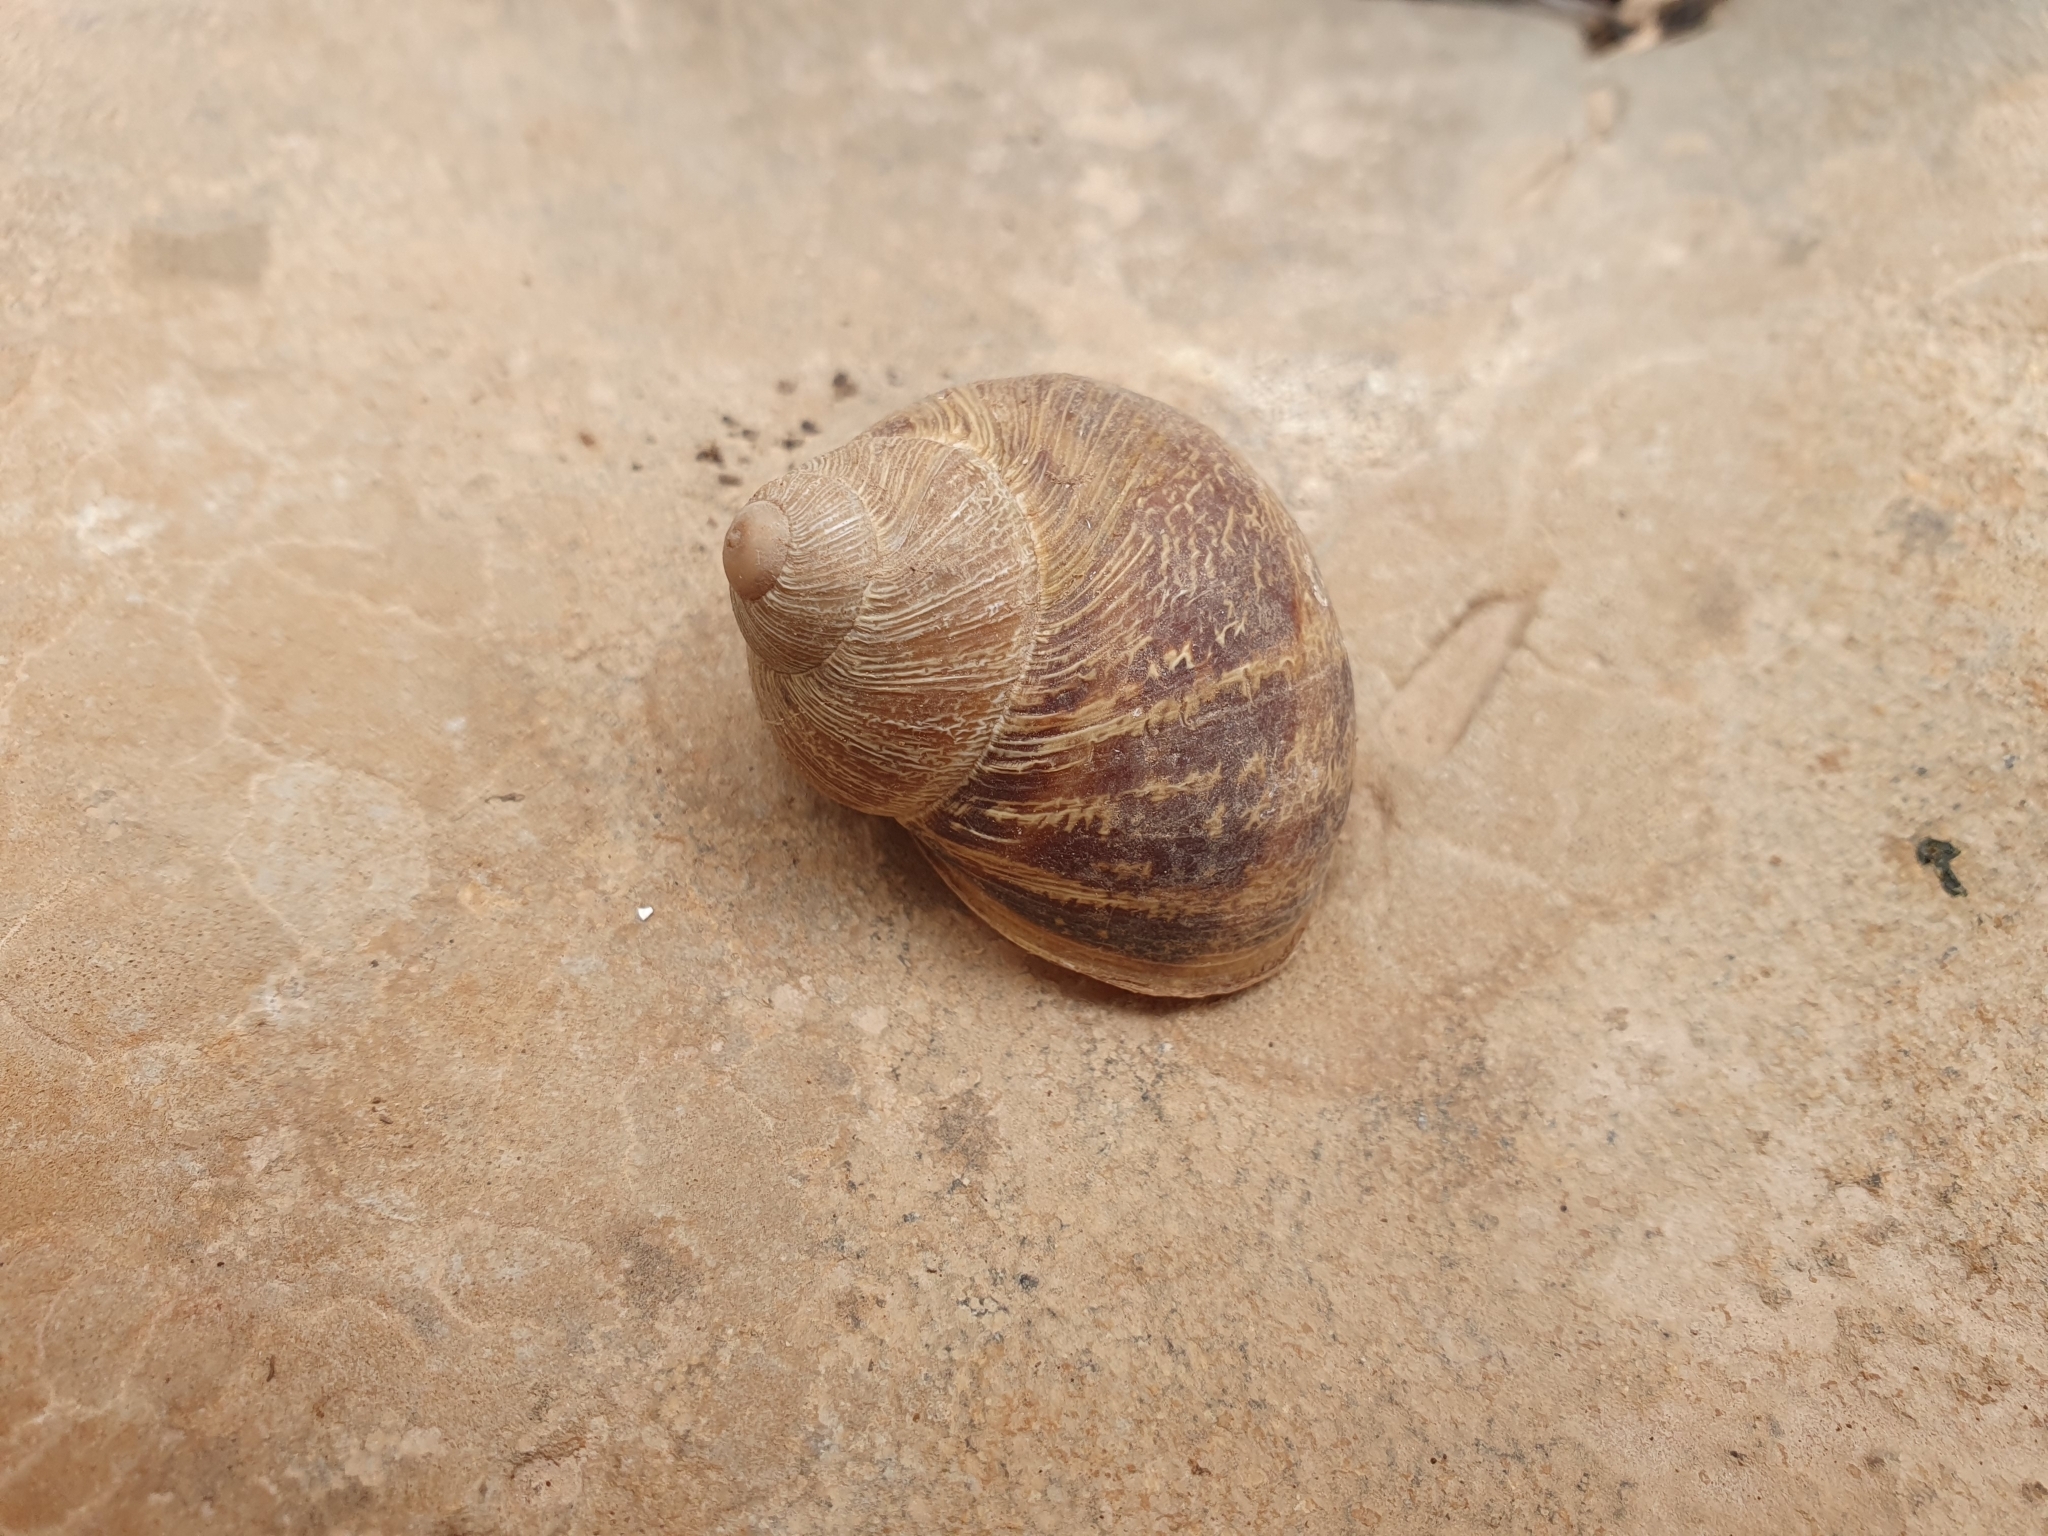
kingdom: Animalia
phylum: Mollusca
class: Gastropoda
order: Stylommatophora
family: Helicidae
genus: Cornu
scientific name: Cornu aspersum
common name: Brown garden snail
